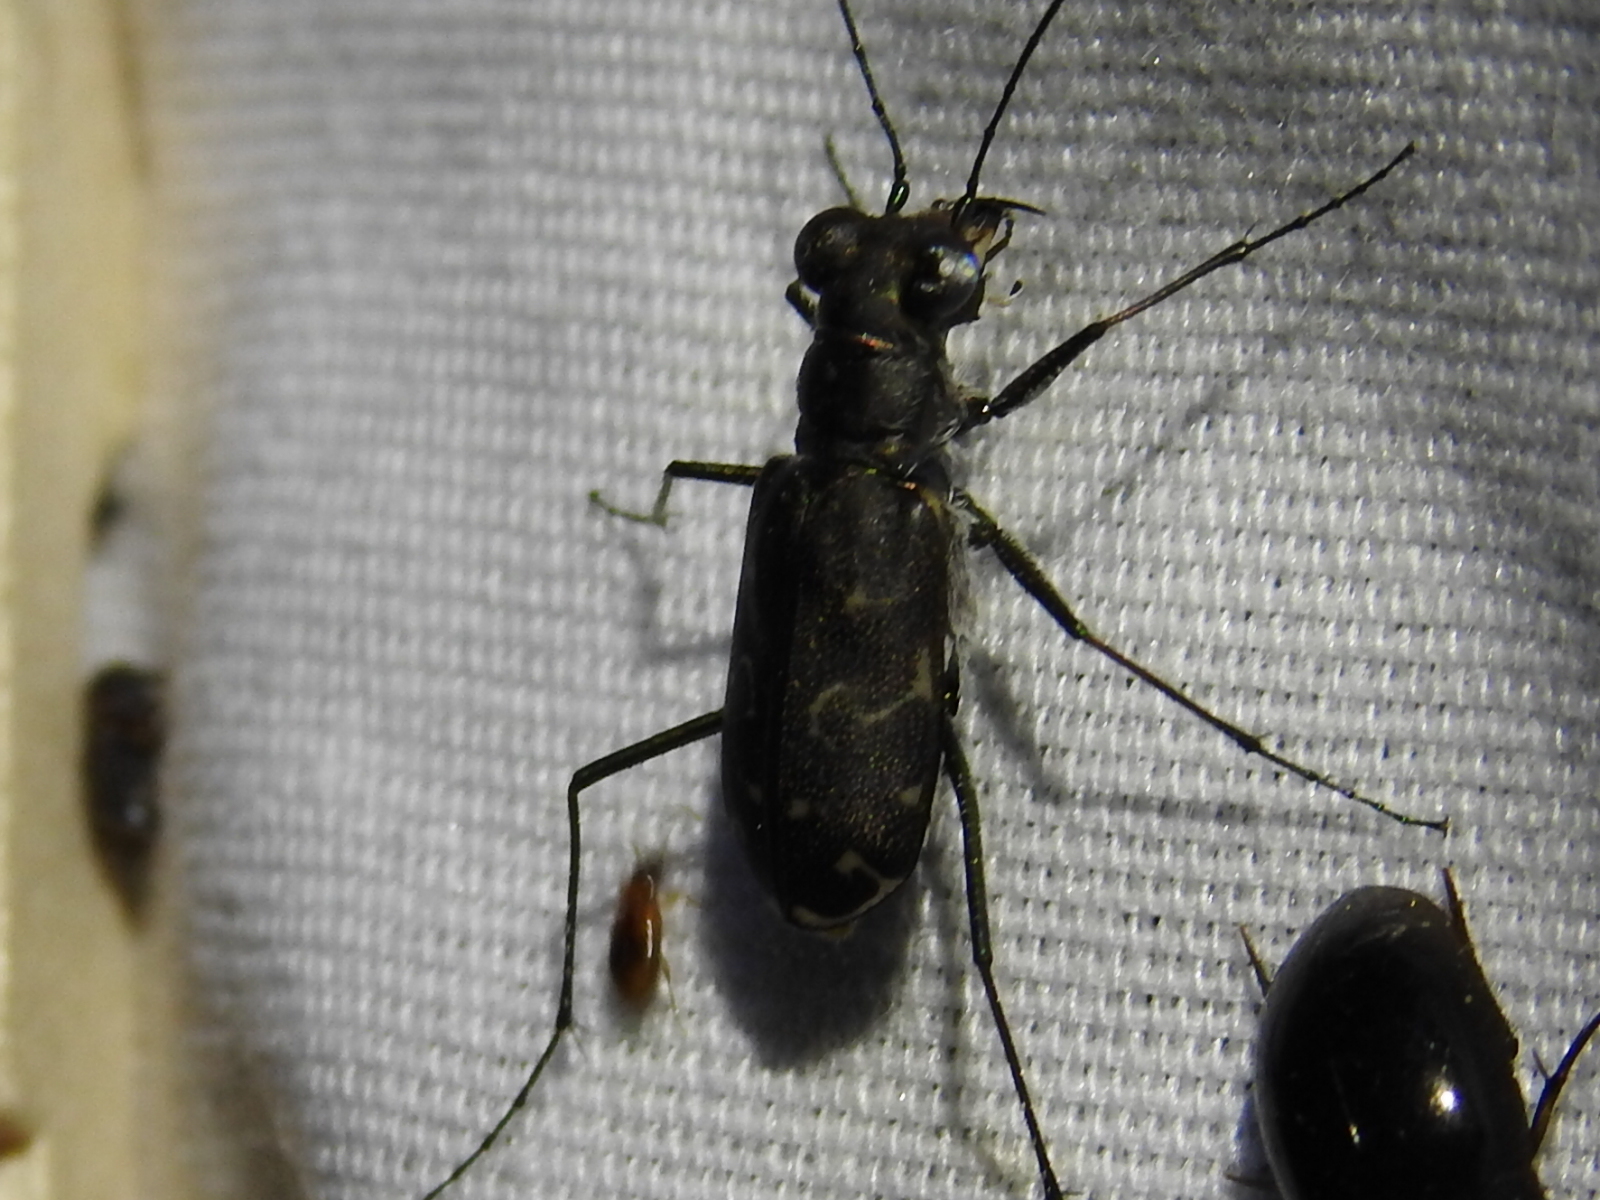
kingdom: Animalia
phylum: Arthropoda
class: Insecta
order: Coleoptera
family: Carabidae
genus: Cicindela
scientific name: Cicindela trifasciata
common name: Mudflat tiger beetle
